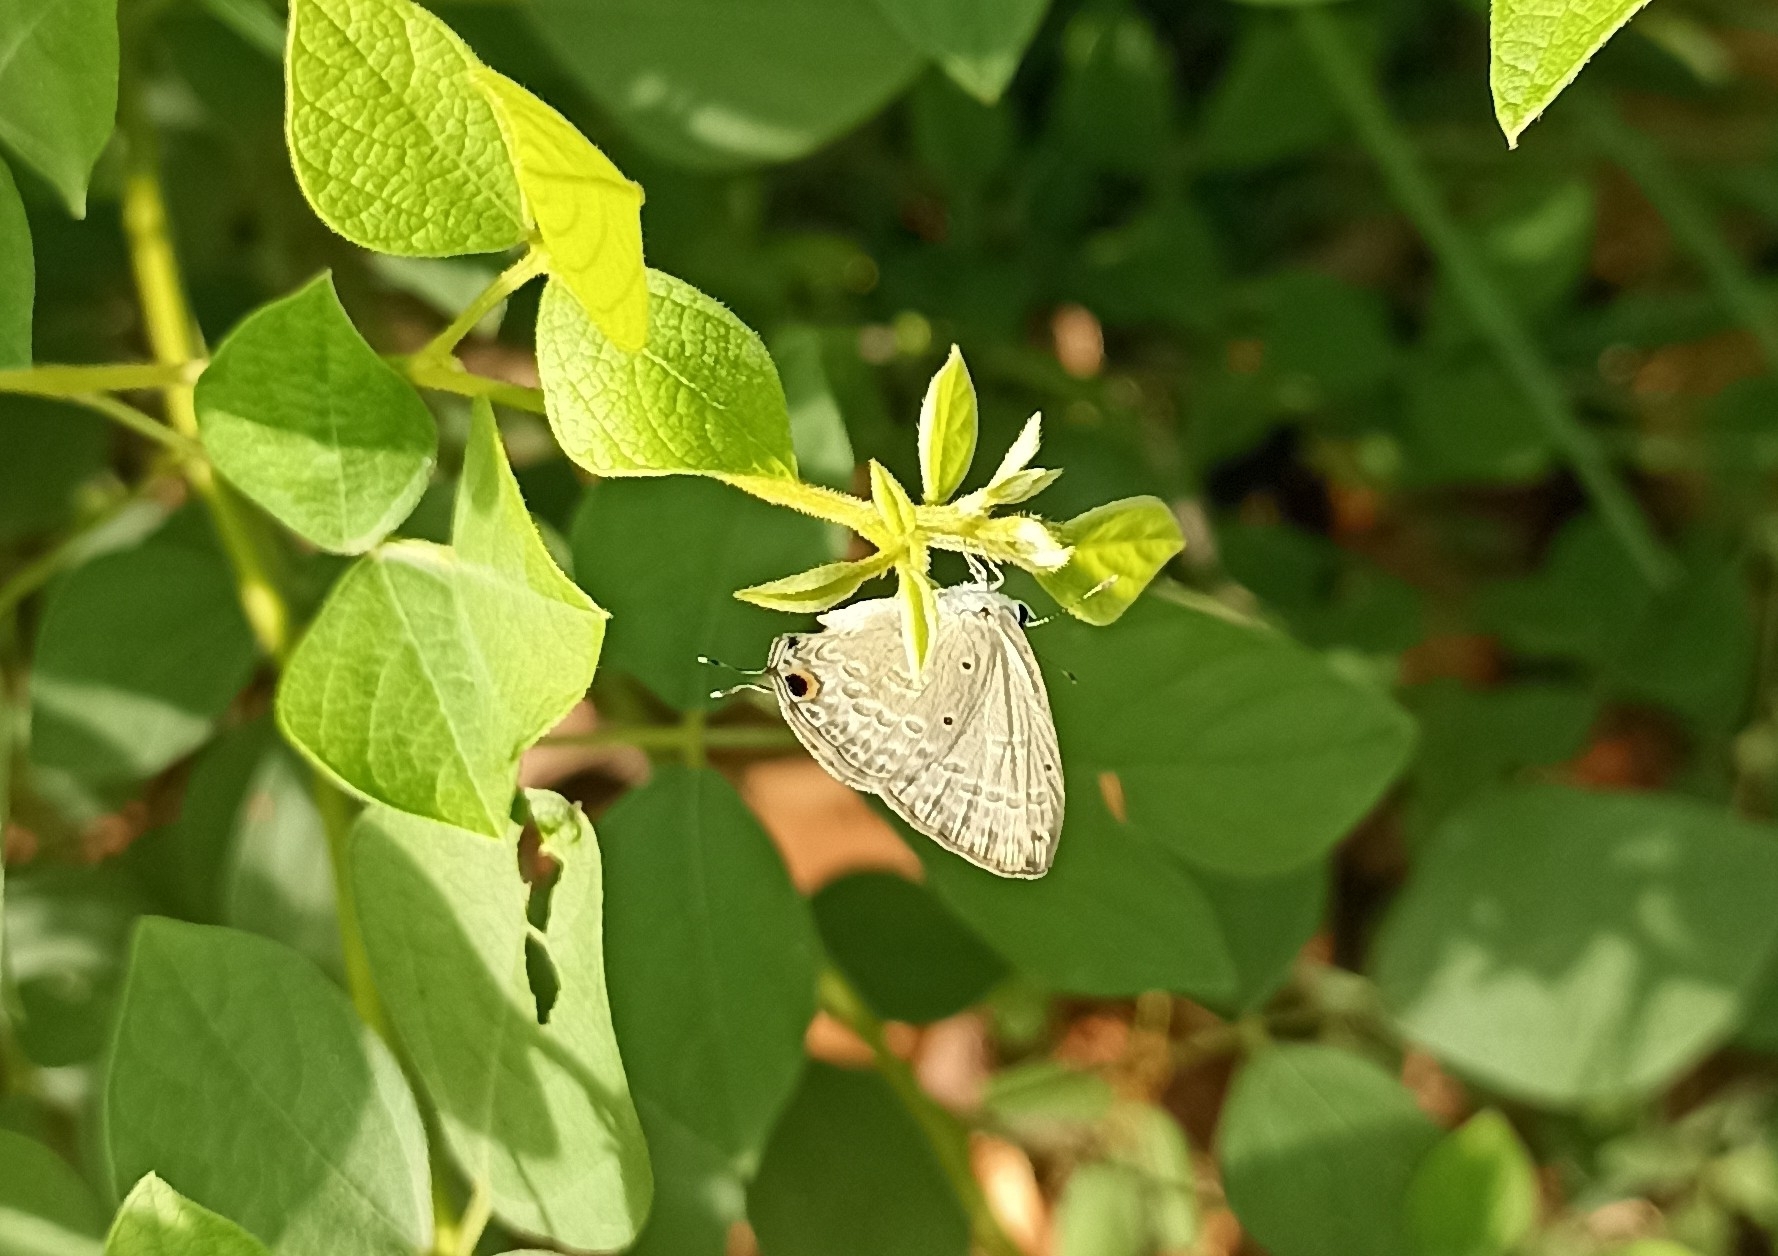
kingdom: Animalia
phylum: Arthropoda
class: Insecta
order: Lepidoptera
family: Lycaenidae
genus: Catochrysops
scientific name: Catochrysops strabo
